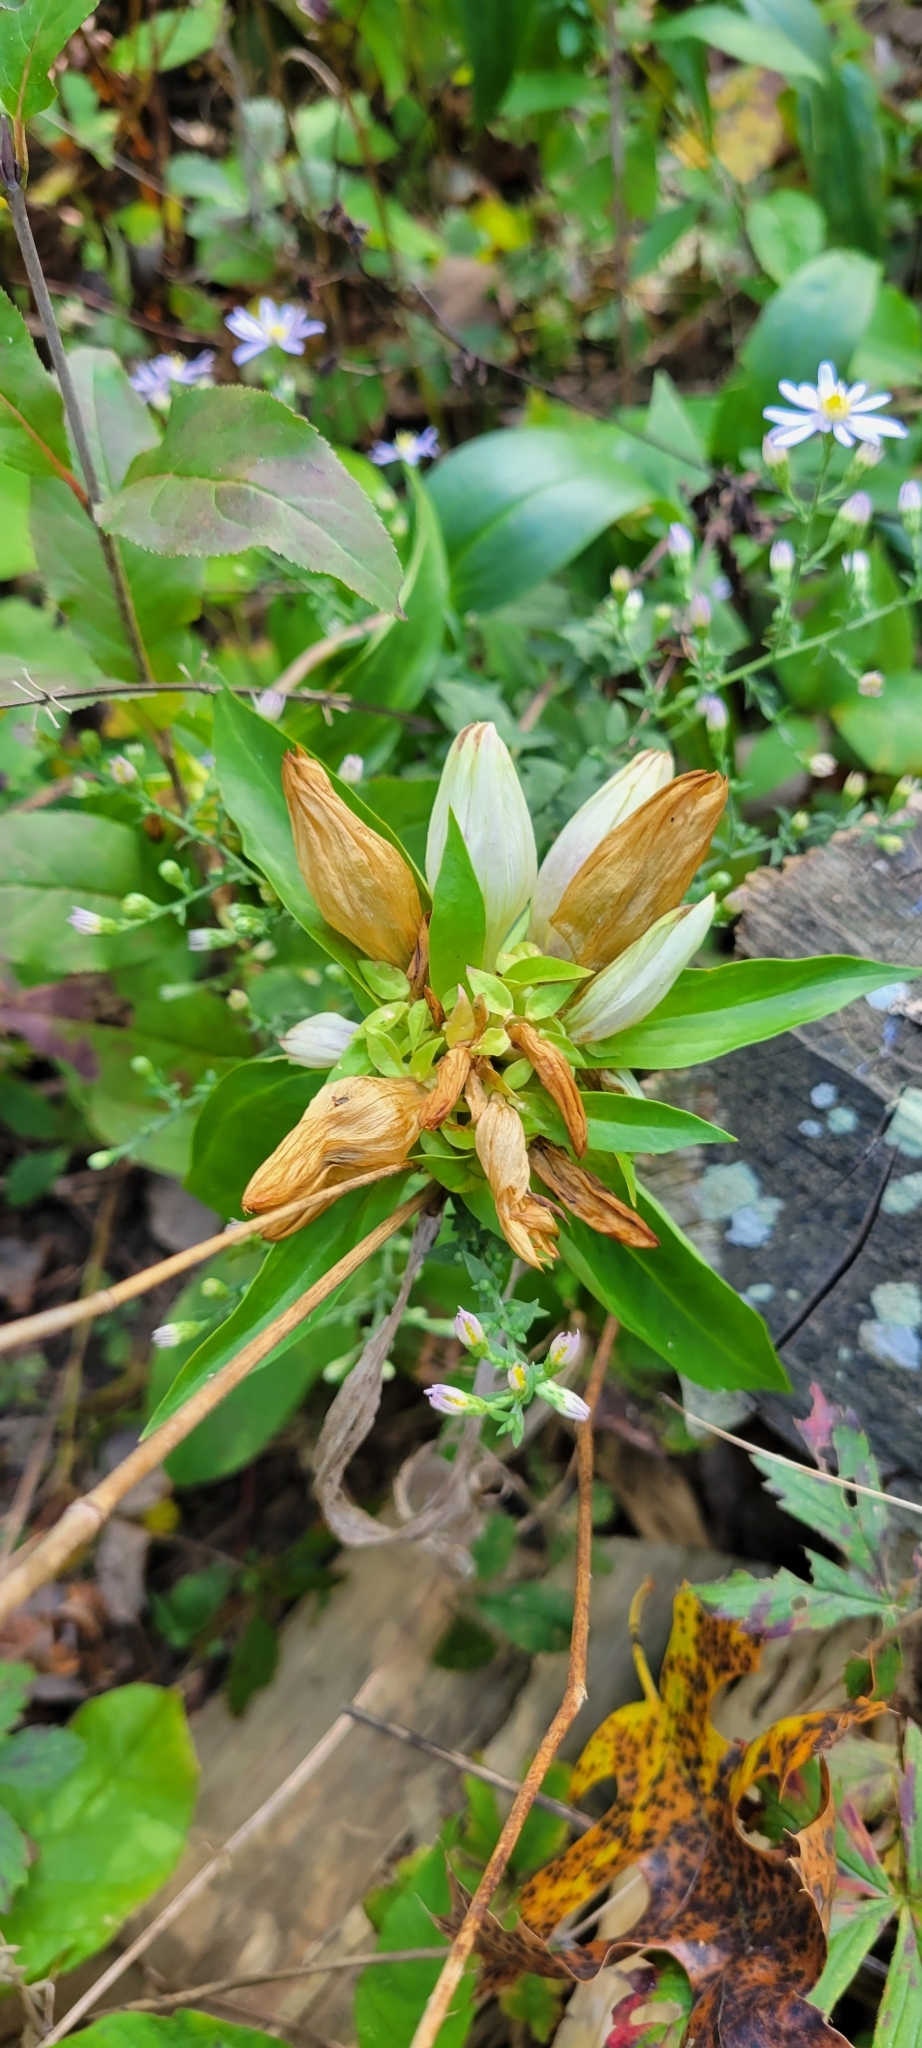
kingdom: Plantae
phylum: Tracheophyta
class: Magnoliopsida
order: Gentianales
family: Gentianaceae
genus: Gentiana
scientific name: Gentiana alba
